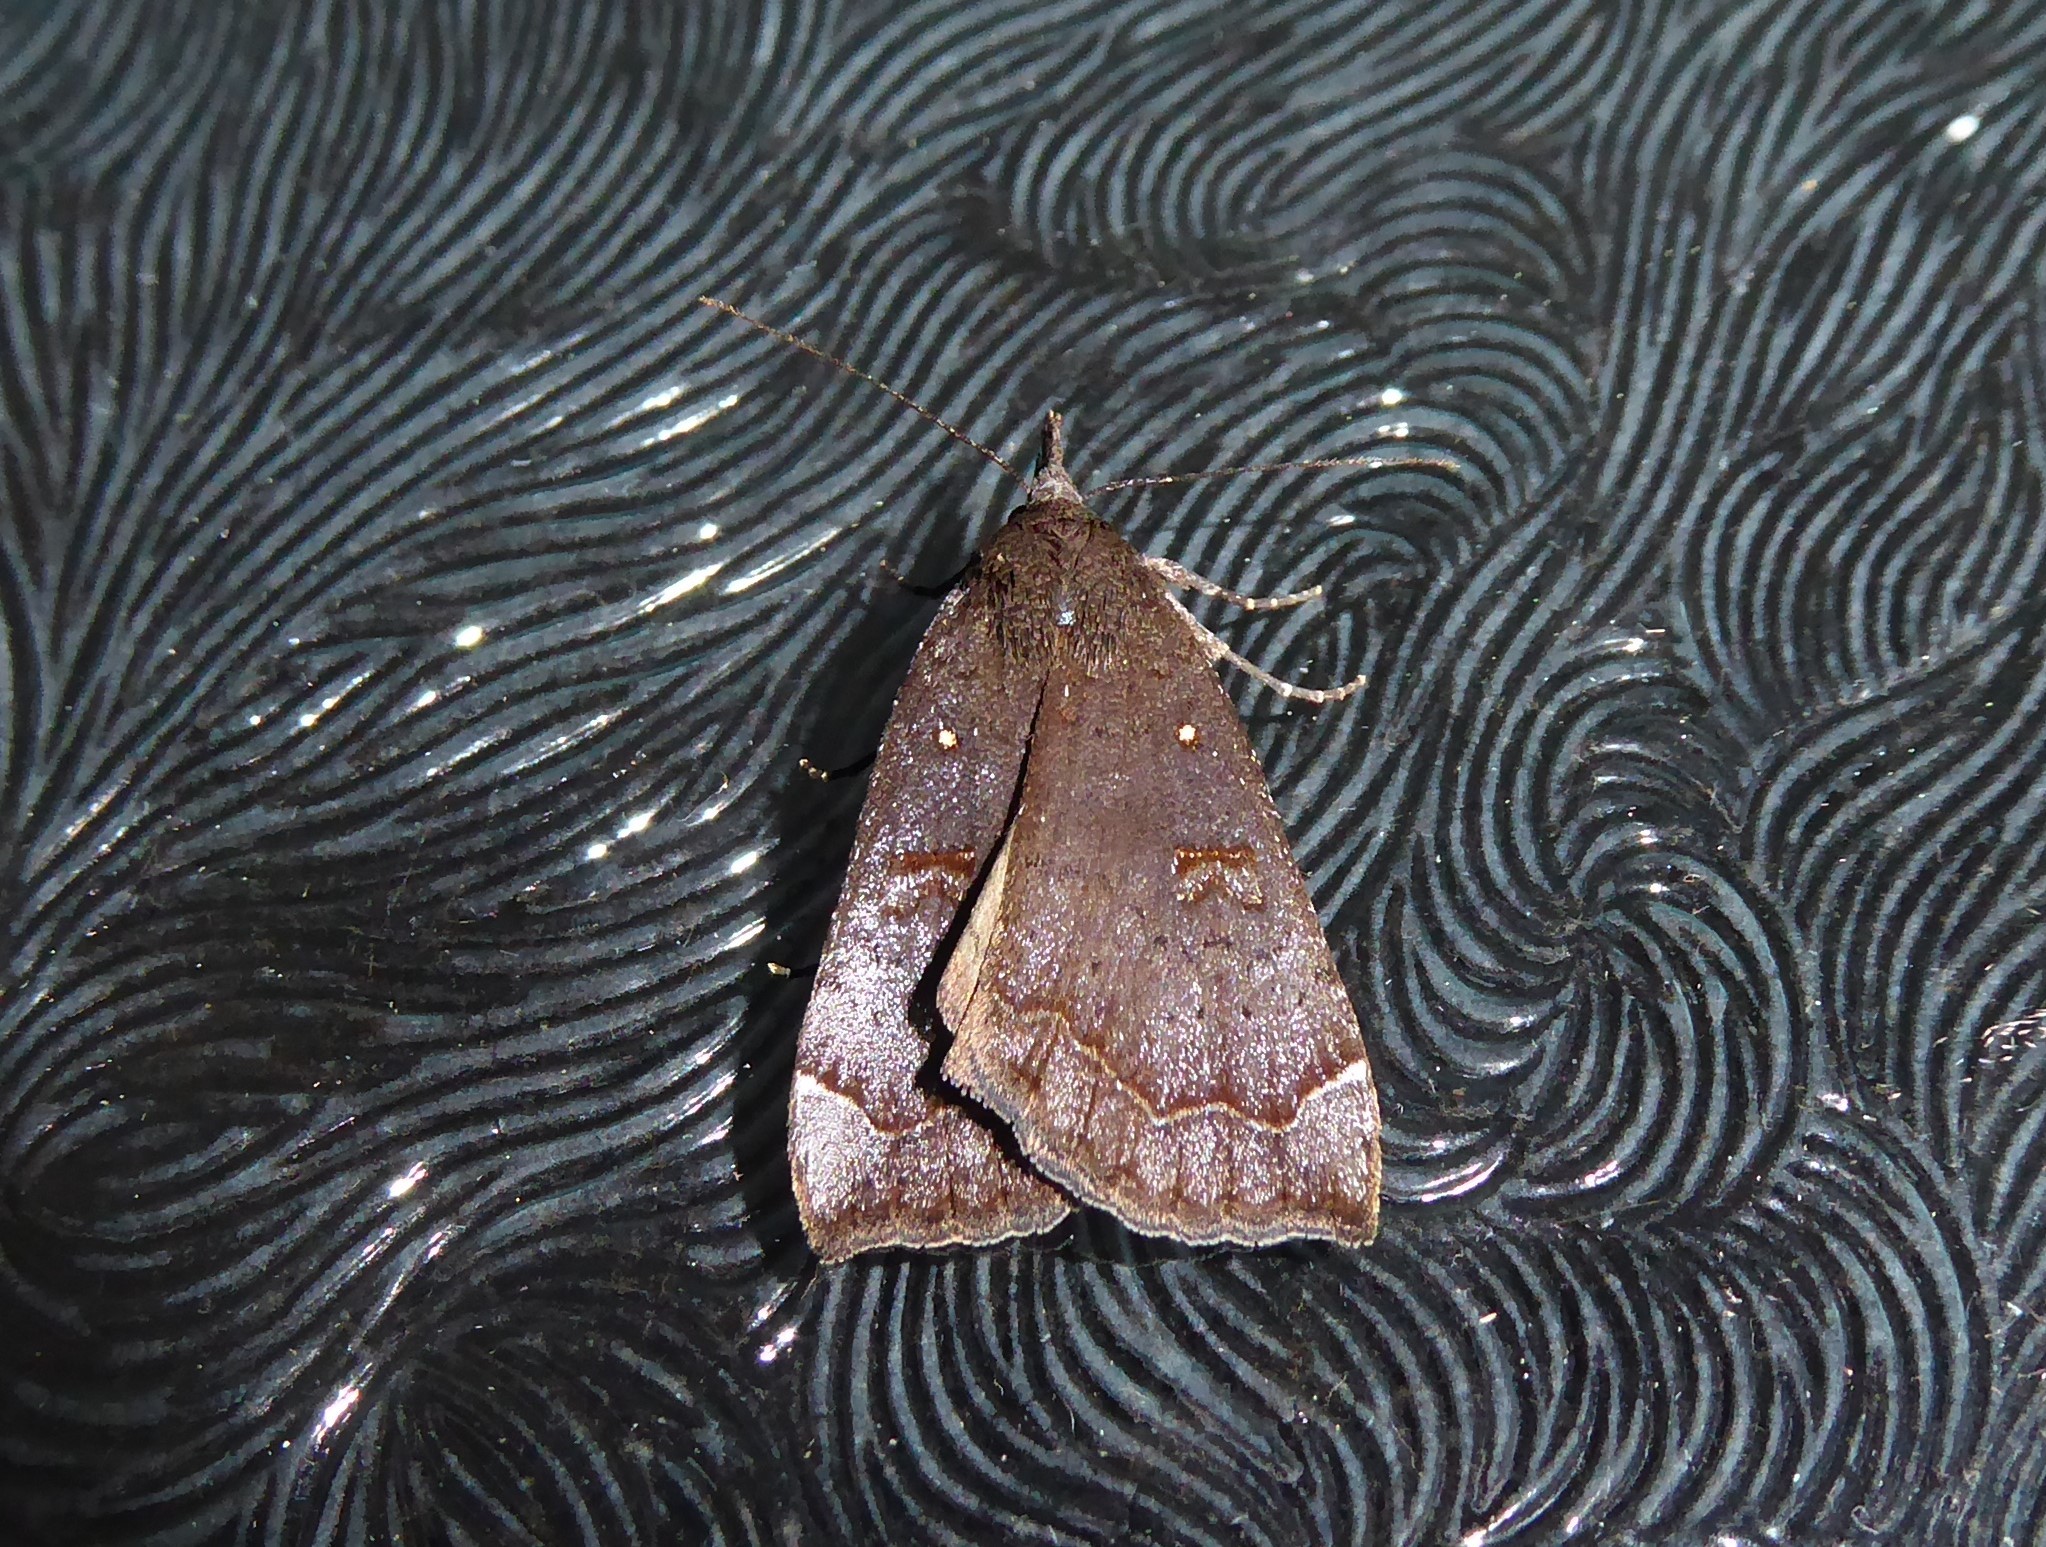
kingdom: Animalia
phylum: Arthropoda
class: Insecta
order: Lepidoptera
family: Erebidae
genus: Rhapsa
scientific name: Rhapsa scotosialis
